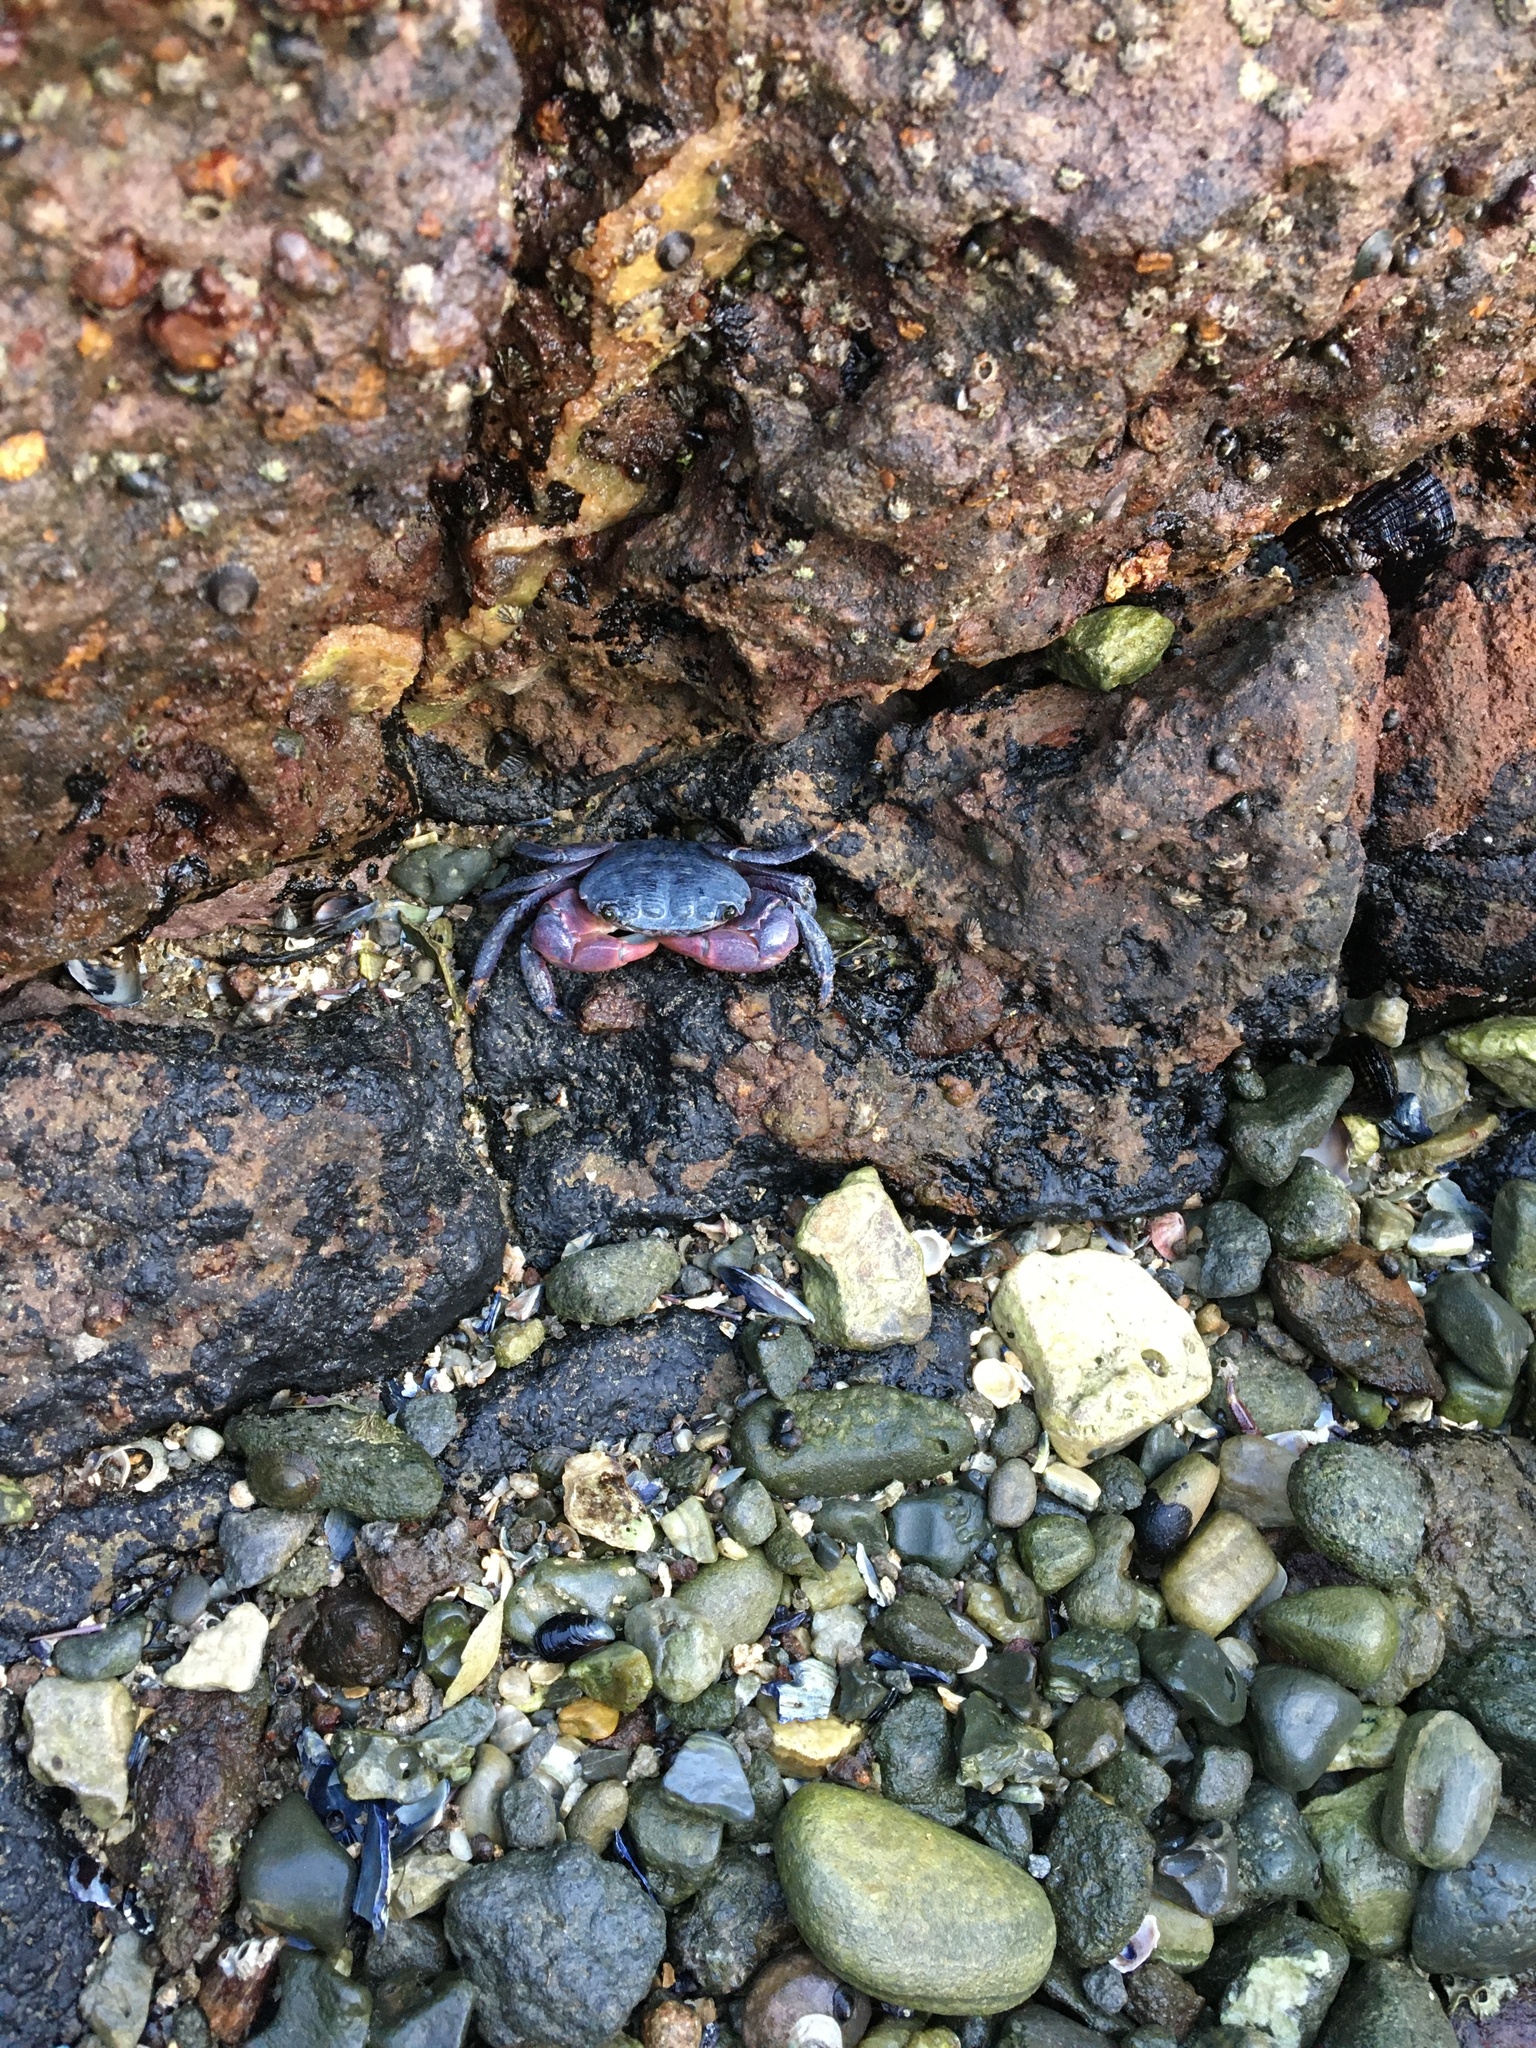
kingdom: Animalia
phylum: Arthropoda
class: Malacostraca
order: Decapoda
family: Grapsidae
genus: Pachygrapsus
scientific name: Pachygrapsus crassipes
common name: Striped shore crab
